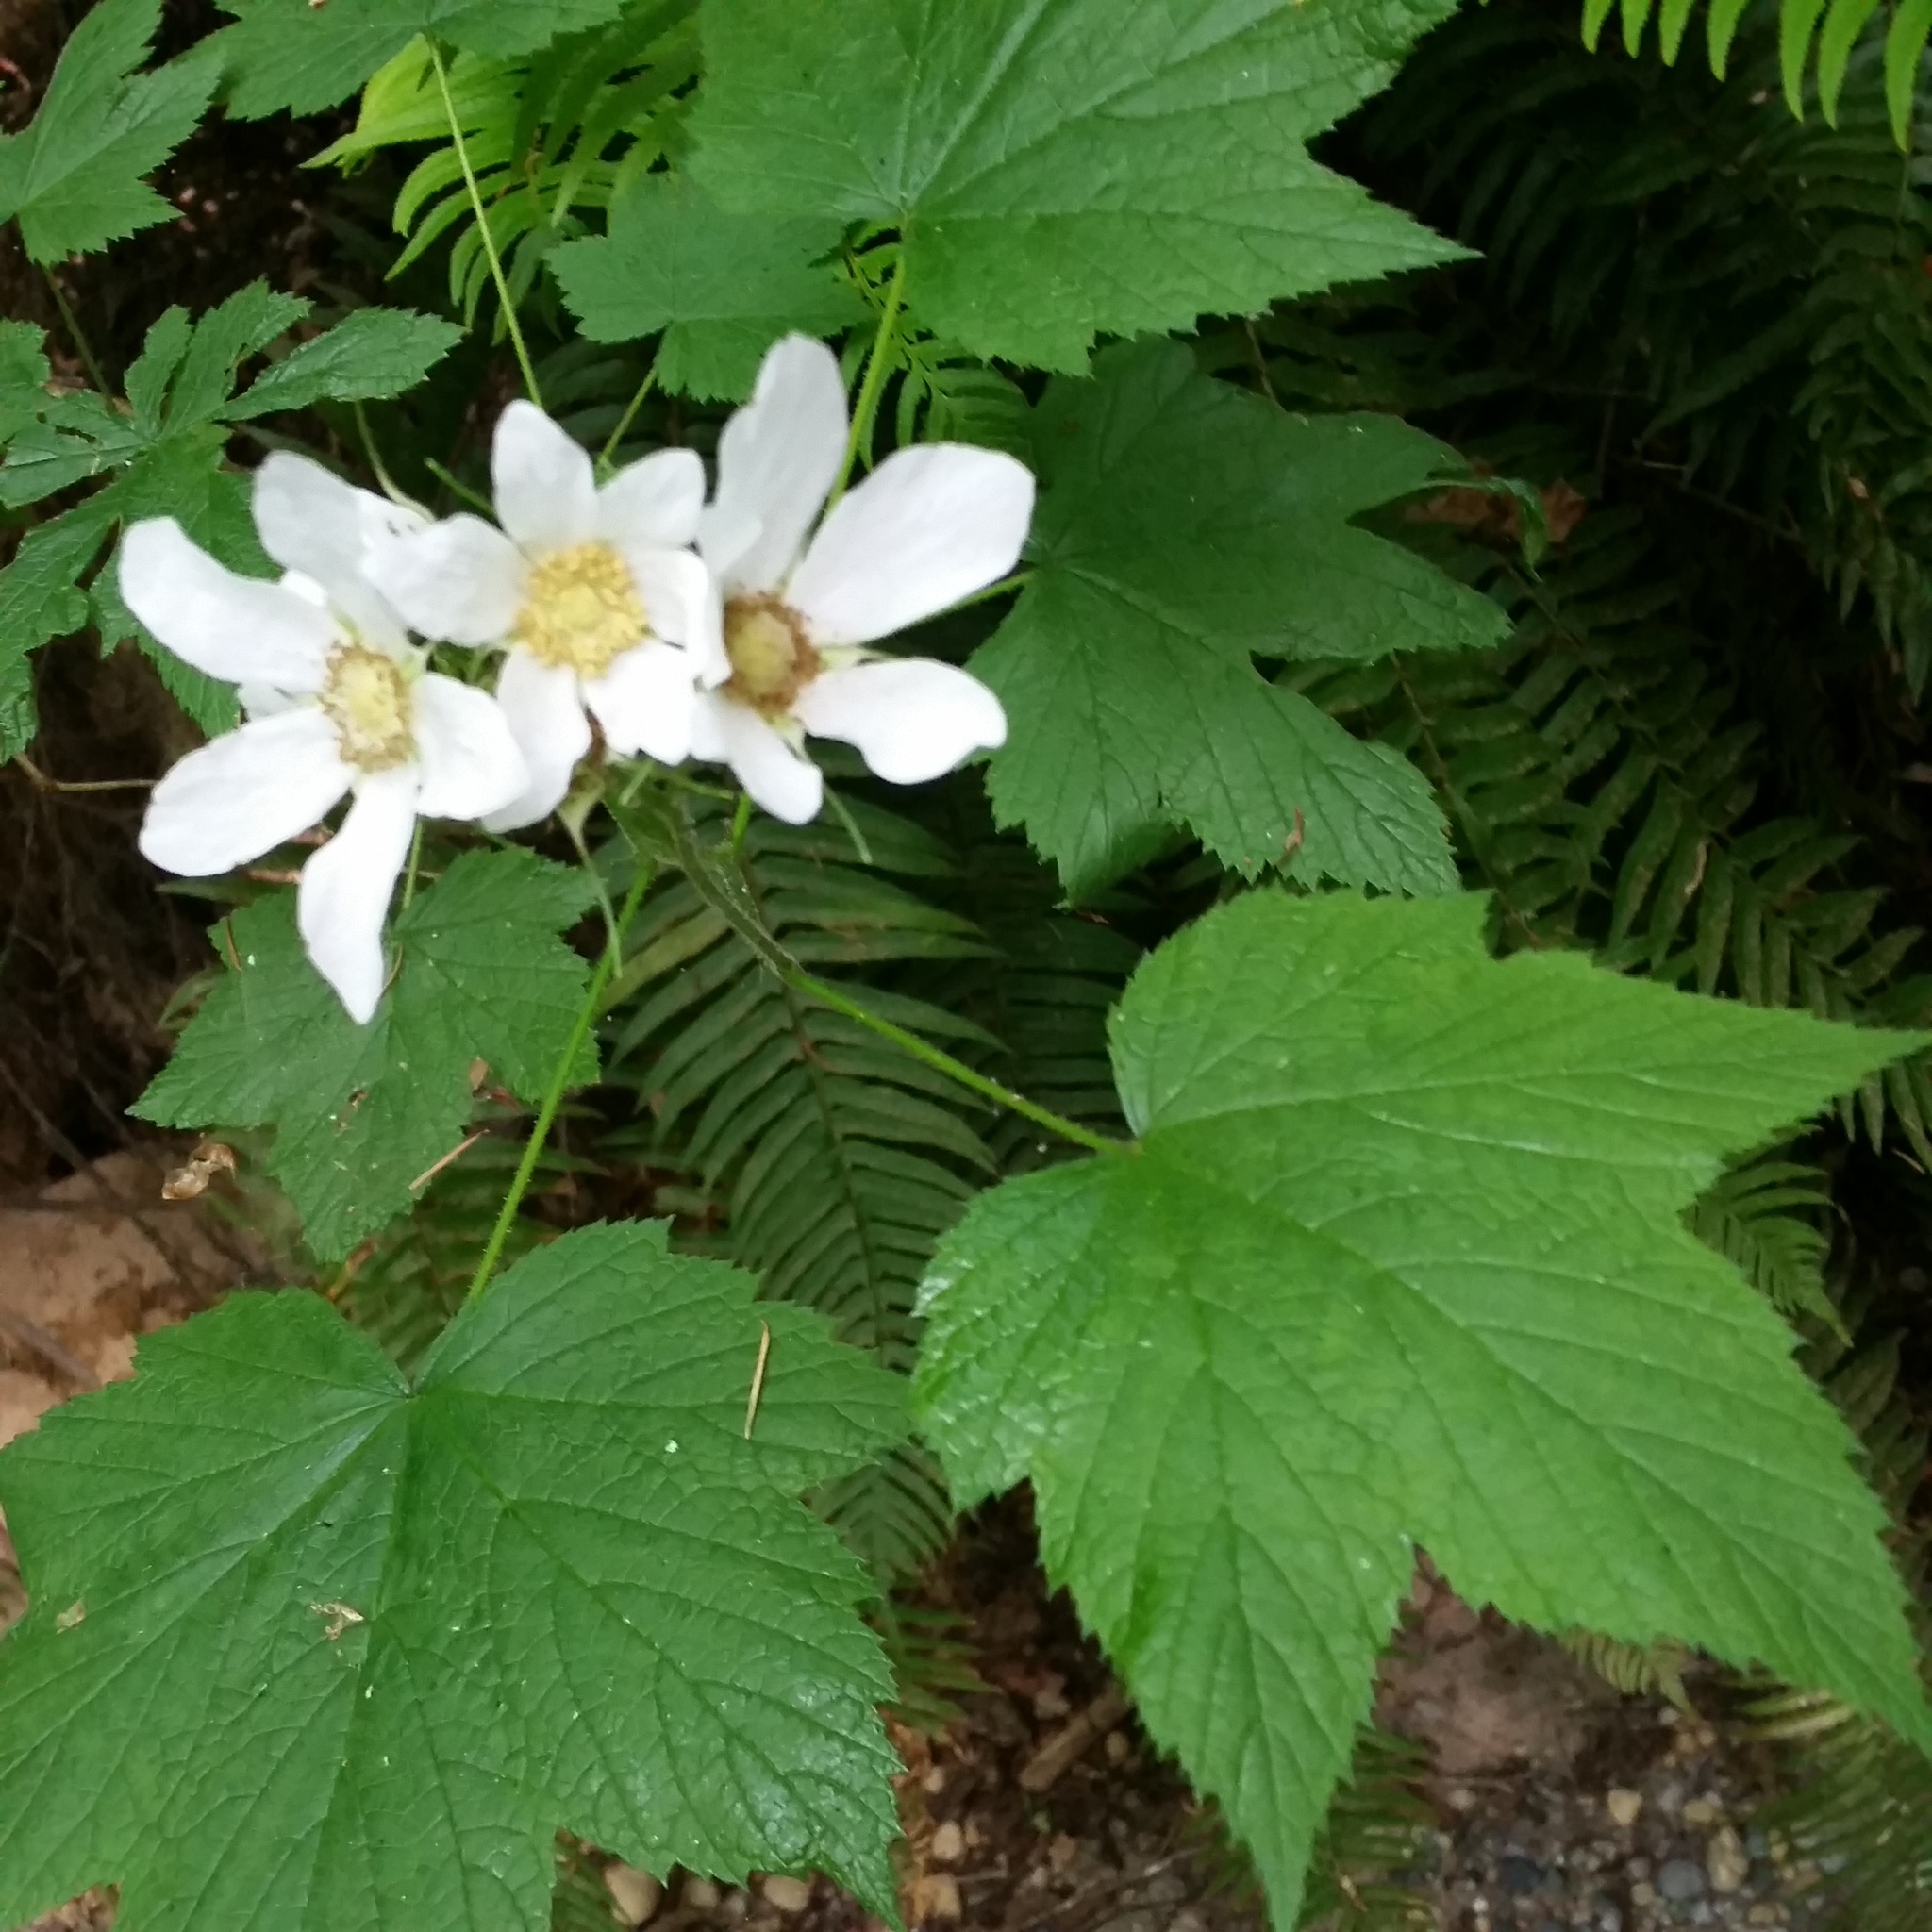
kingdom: Plantae
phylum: Tracheophyta
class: Magnoliopsida
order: Rosales
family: Rosaceae
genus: Rubus
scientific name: Rubus parviflorus
